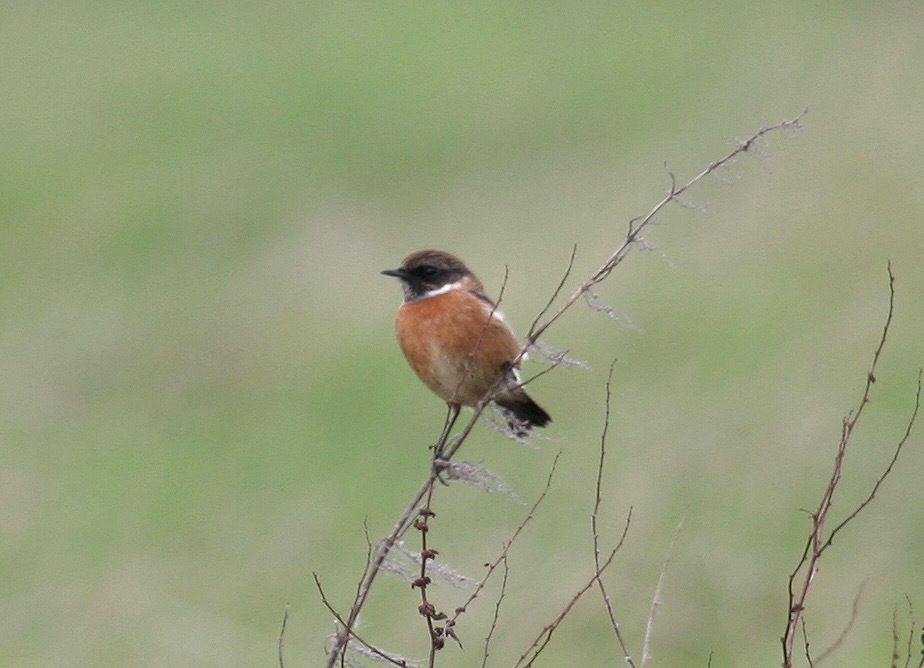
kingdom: Animalia
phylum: Chordata
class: Aves
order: Passeriformes
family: Muscicapidae
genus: Saxicola
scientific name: Saxicola rubicola
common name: European stonechat
